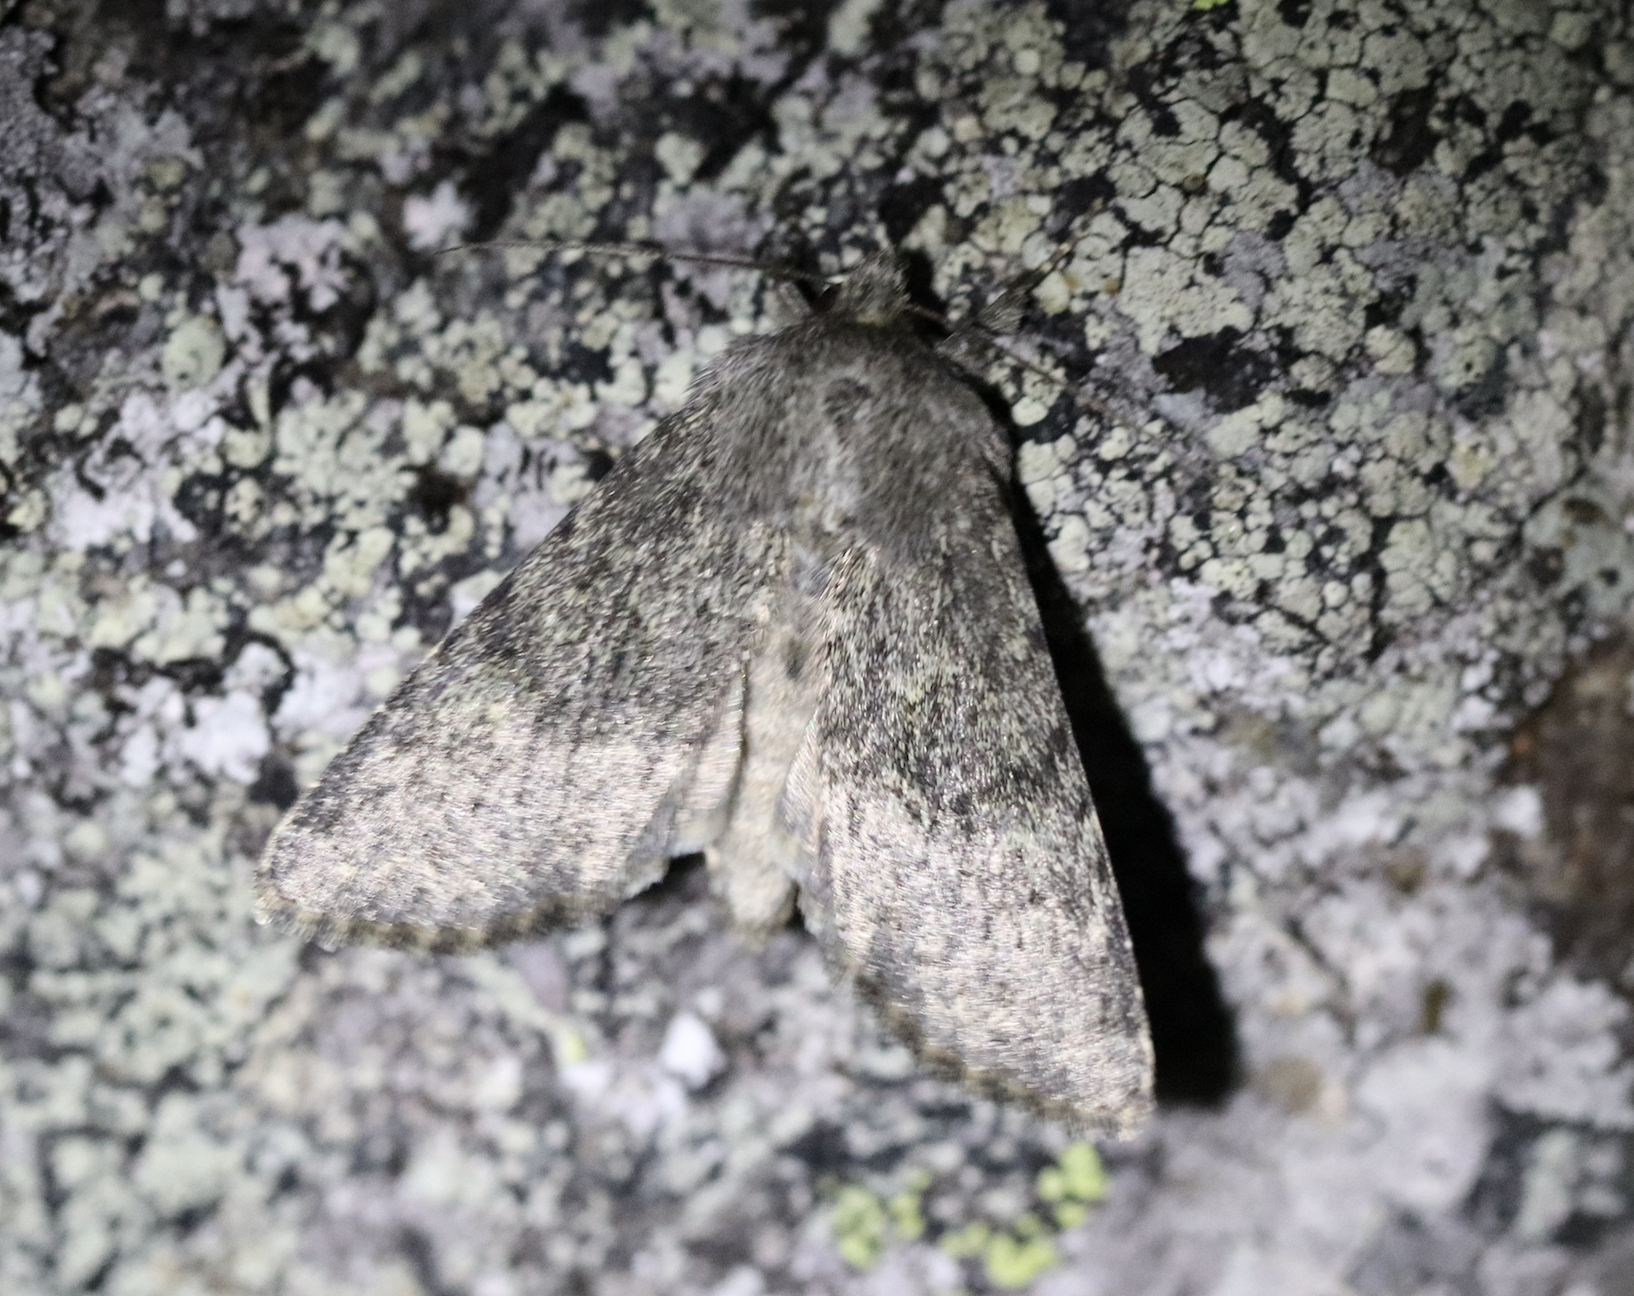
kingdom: Animalia
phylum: Arthropoda
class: Insecta
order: Lepidoptera
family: Noctuidae
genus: Apamea
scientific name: Apamea zeta
